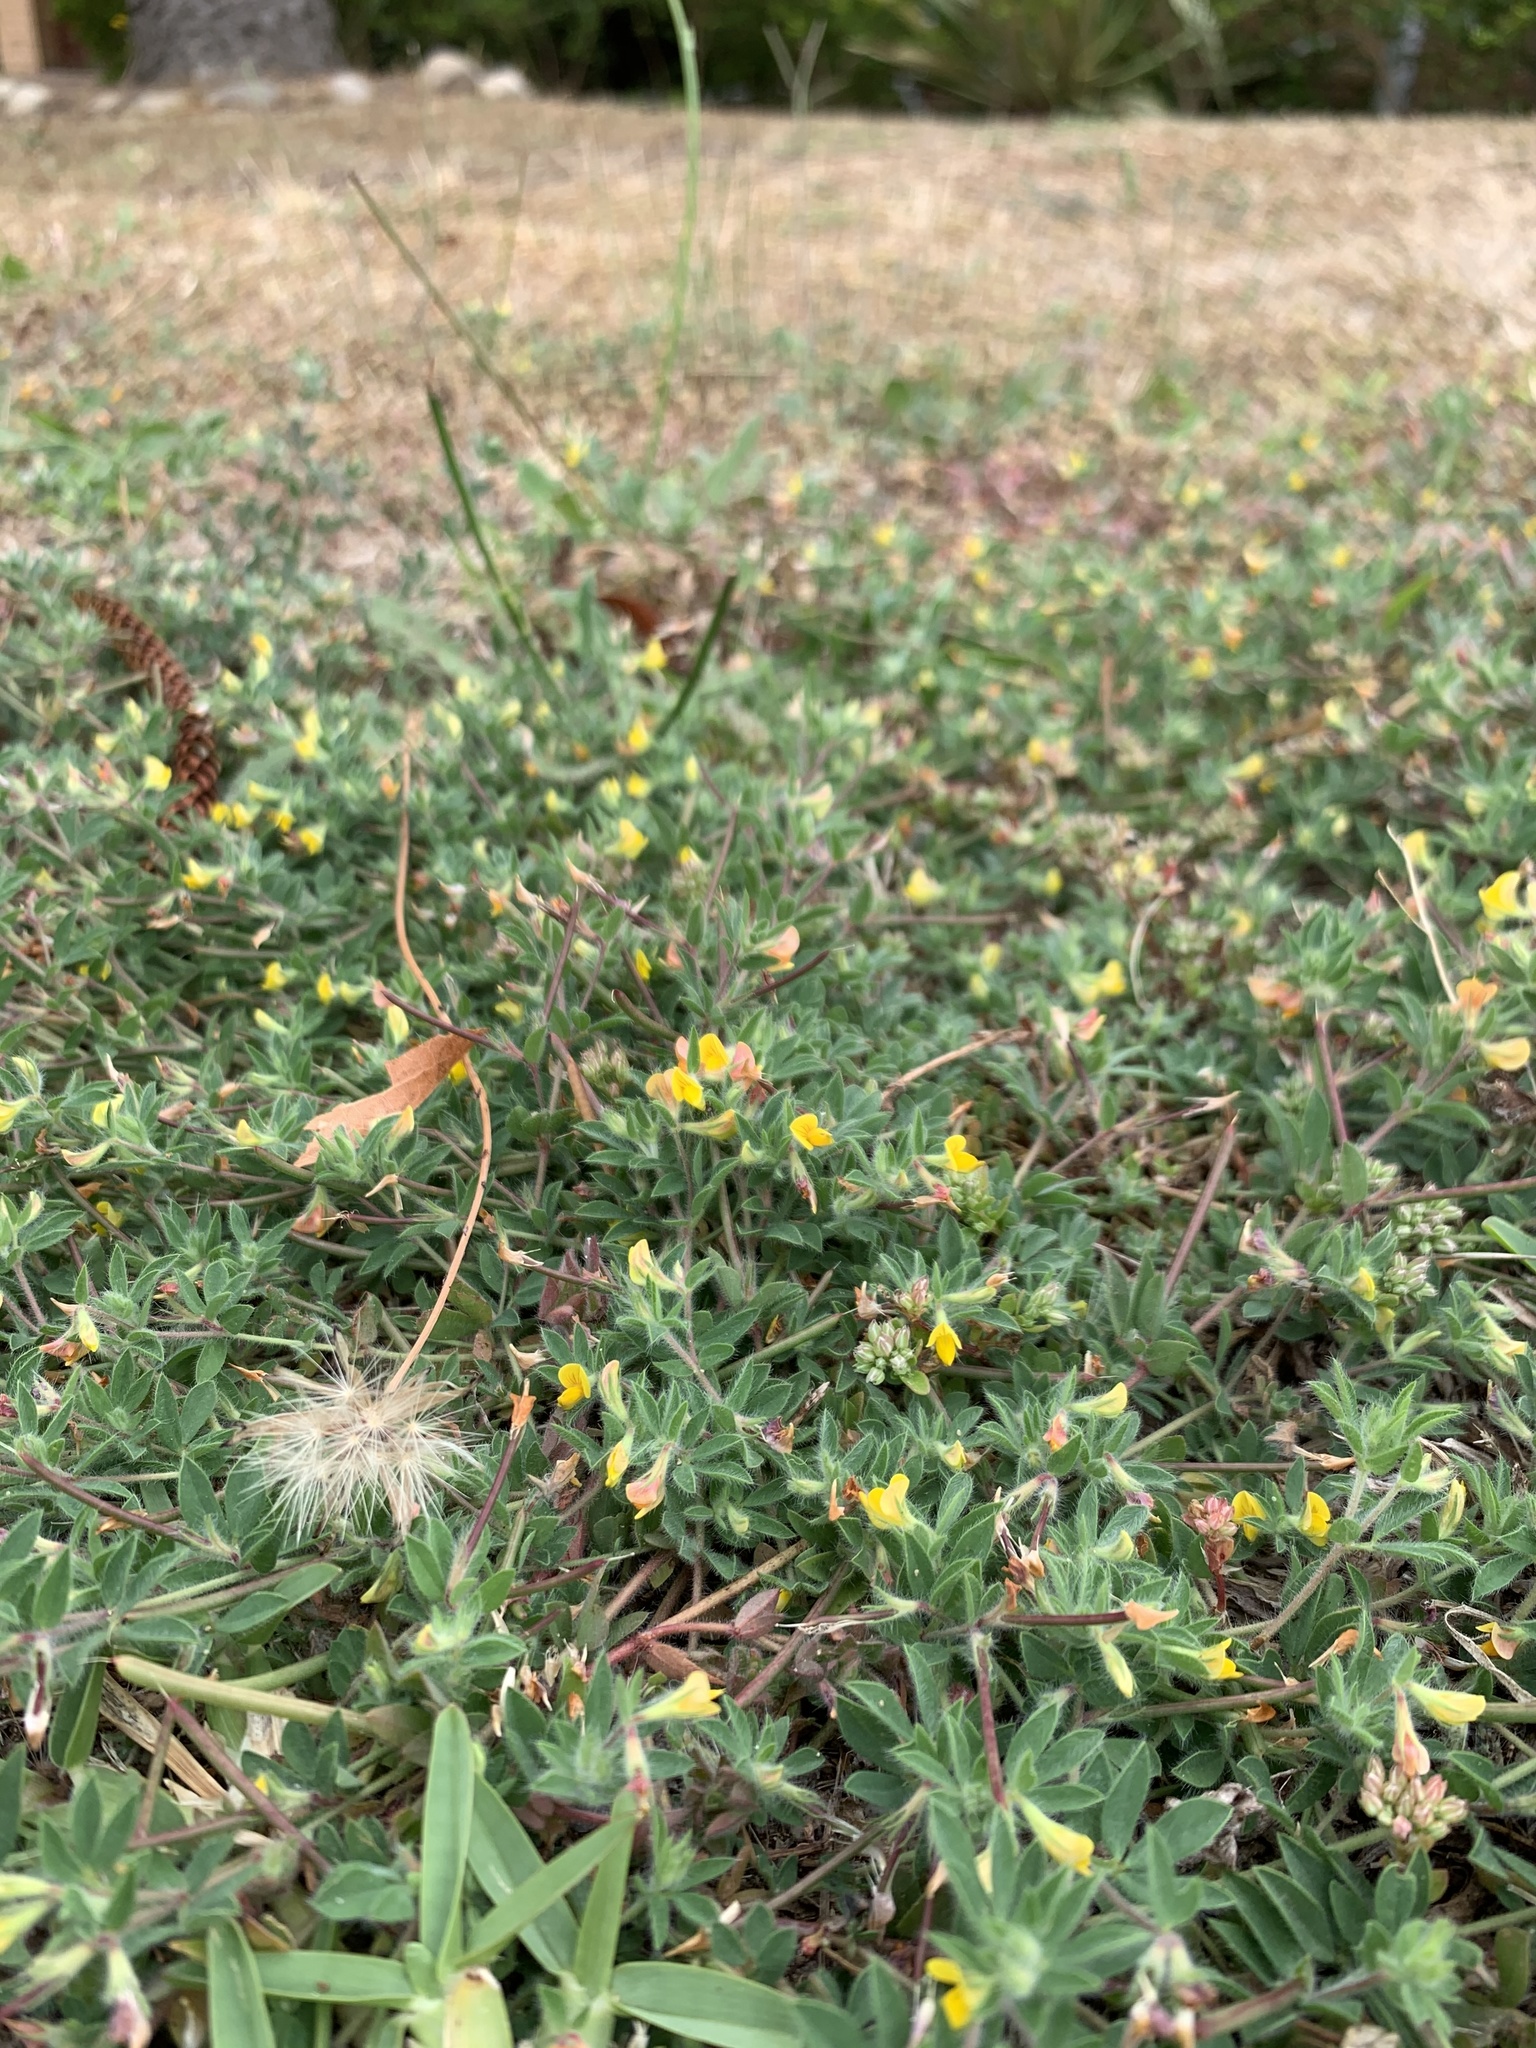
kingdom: Plantae
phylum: Tracheophyta
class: Magnoliopsida
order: Fabales
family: Fabaceae
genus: Lotus
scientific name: Lotus subbiflorus
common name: Hairy bird's-foot trefoil
